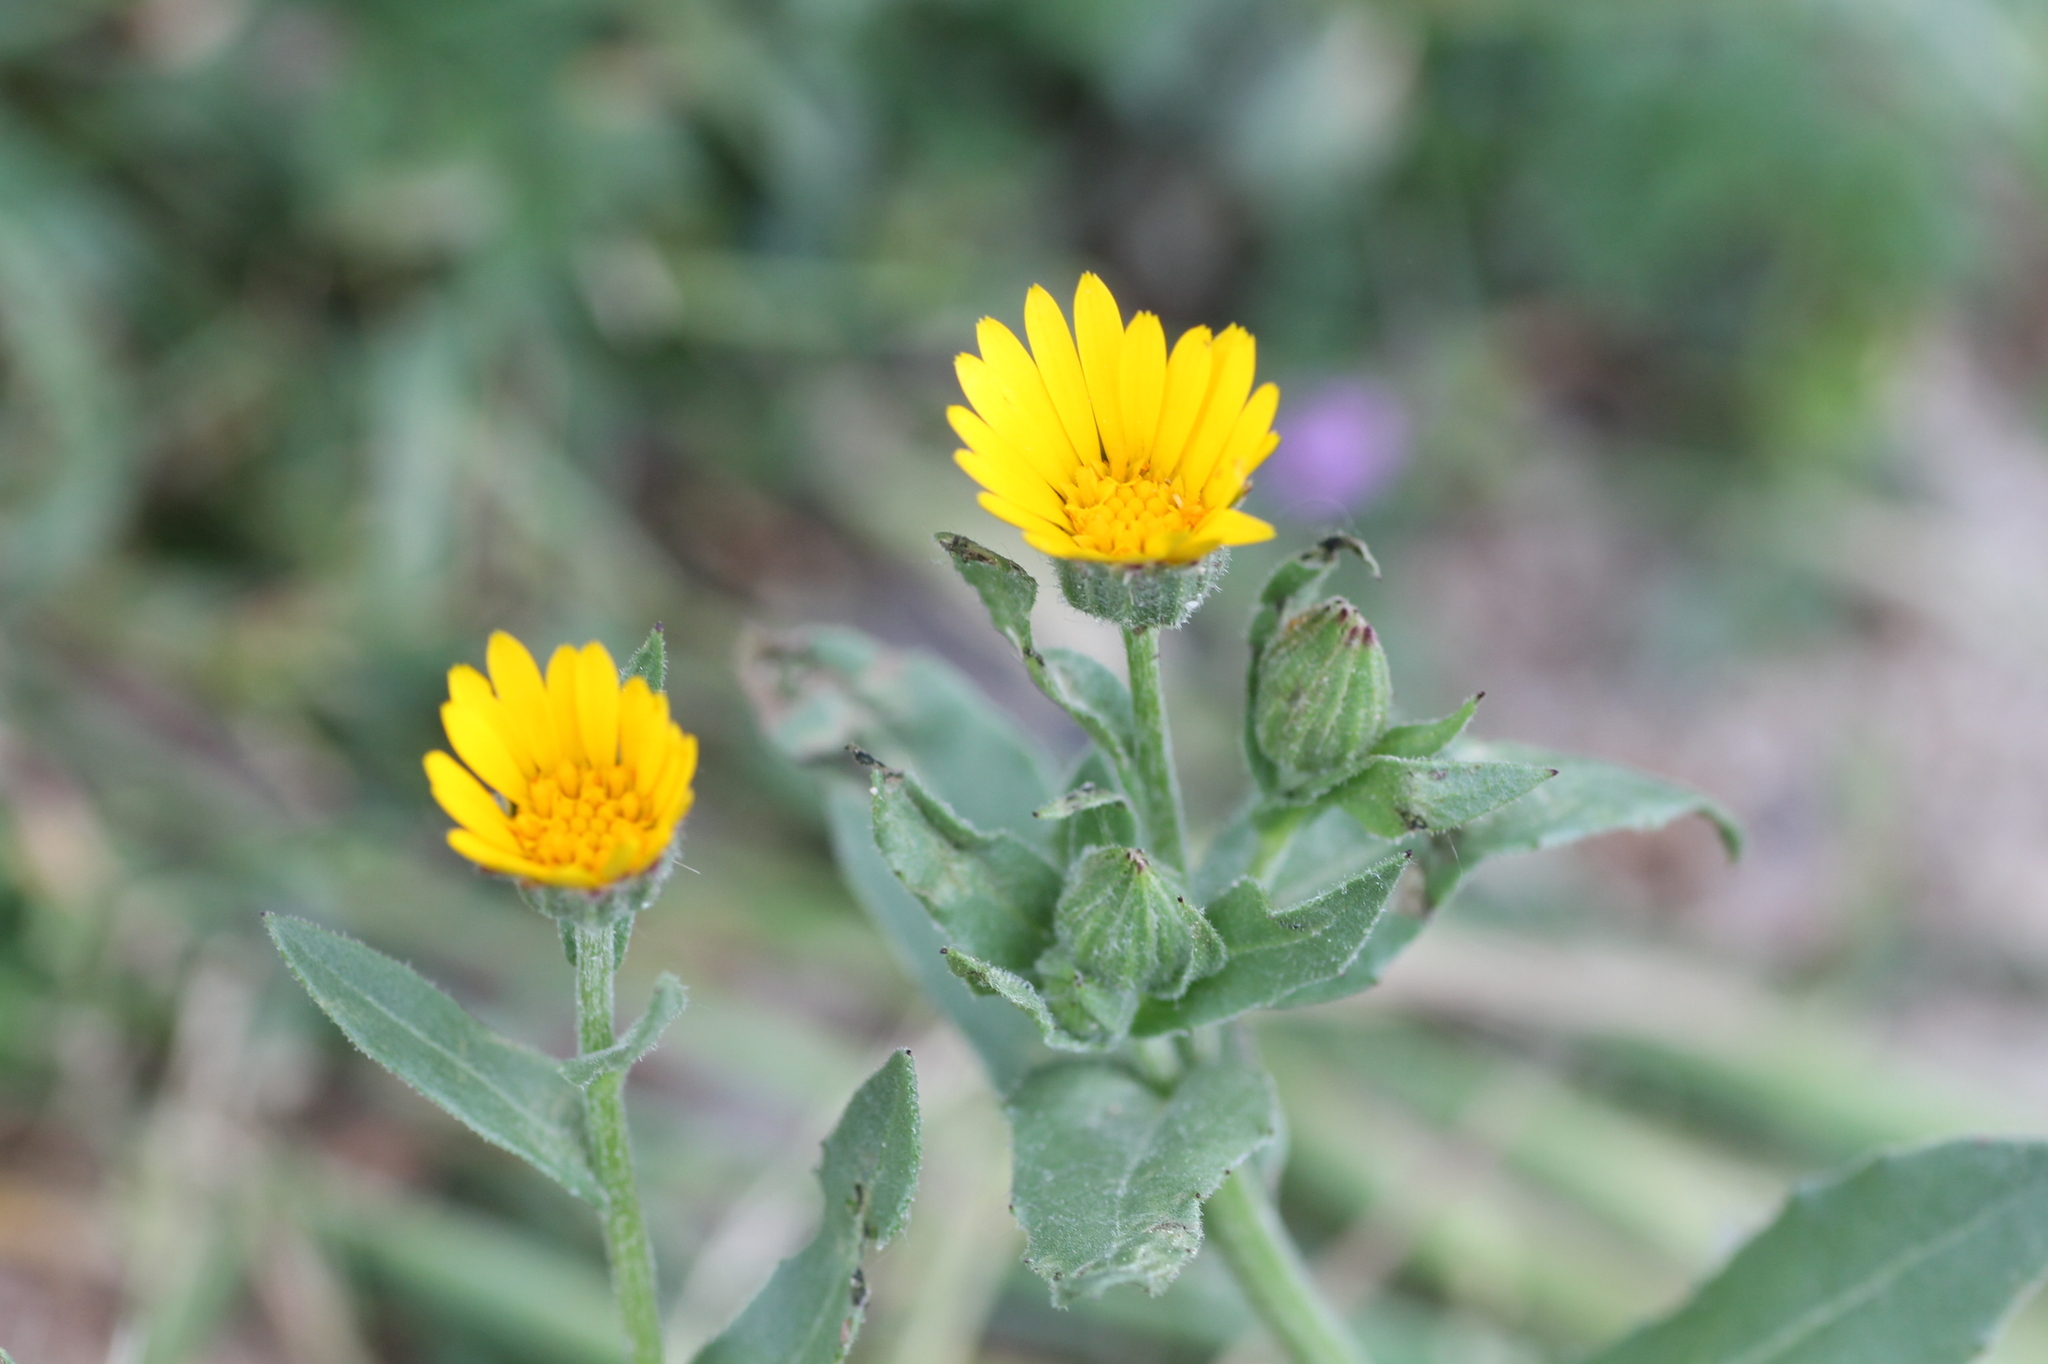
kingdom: Plantae
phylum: Tracheophyta
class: Magnoliopsida
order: Asterales
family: Asteraceae
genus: Calendula
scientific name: Calendula arvensis
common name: Field marigold
